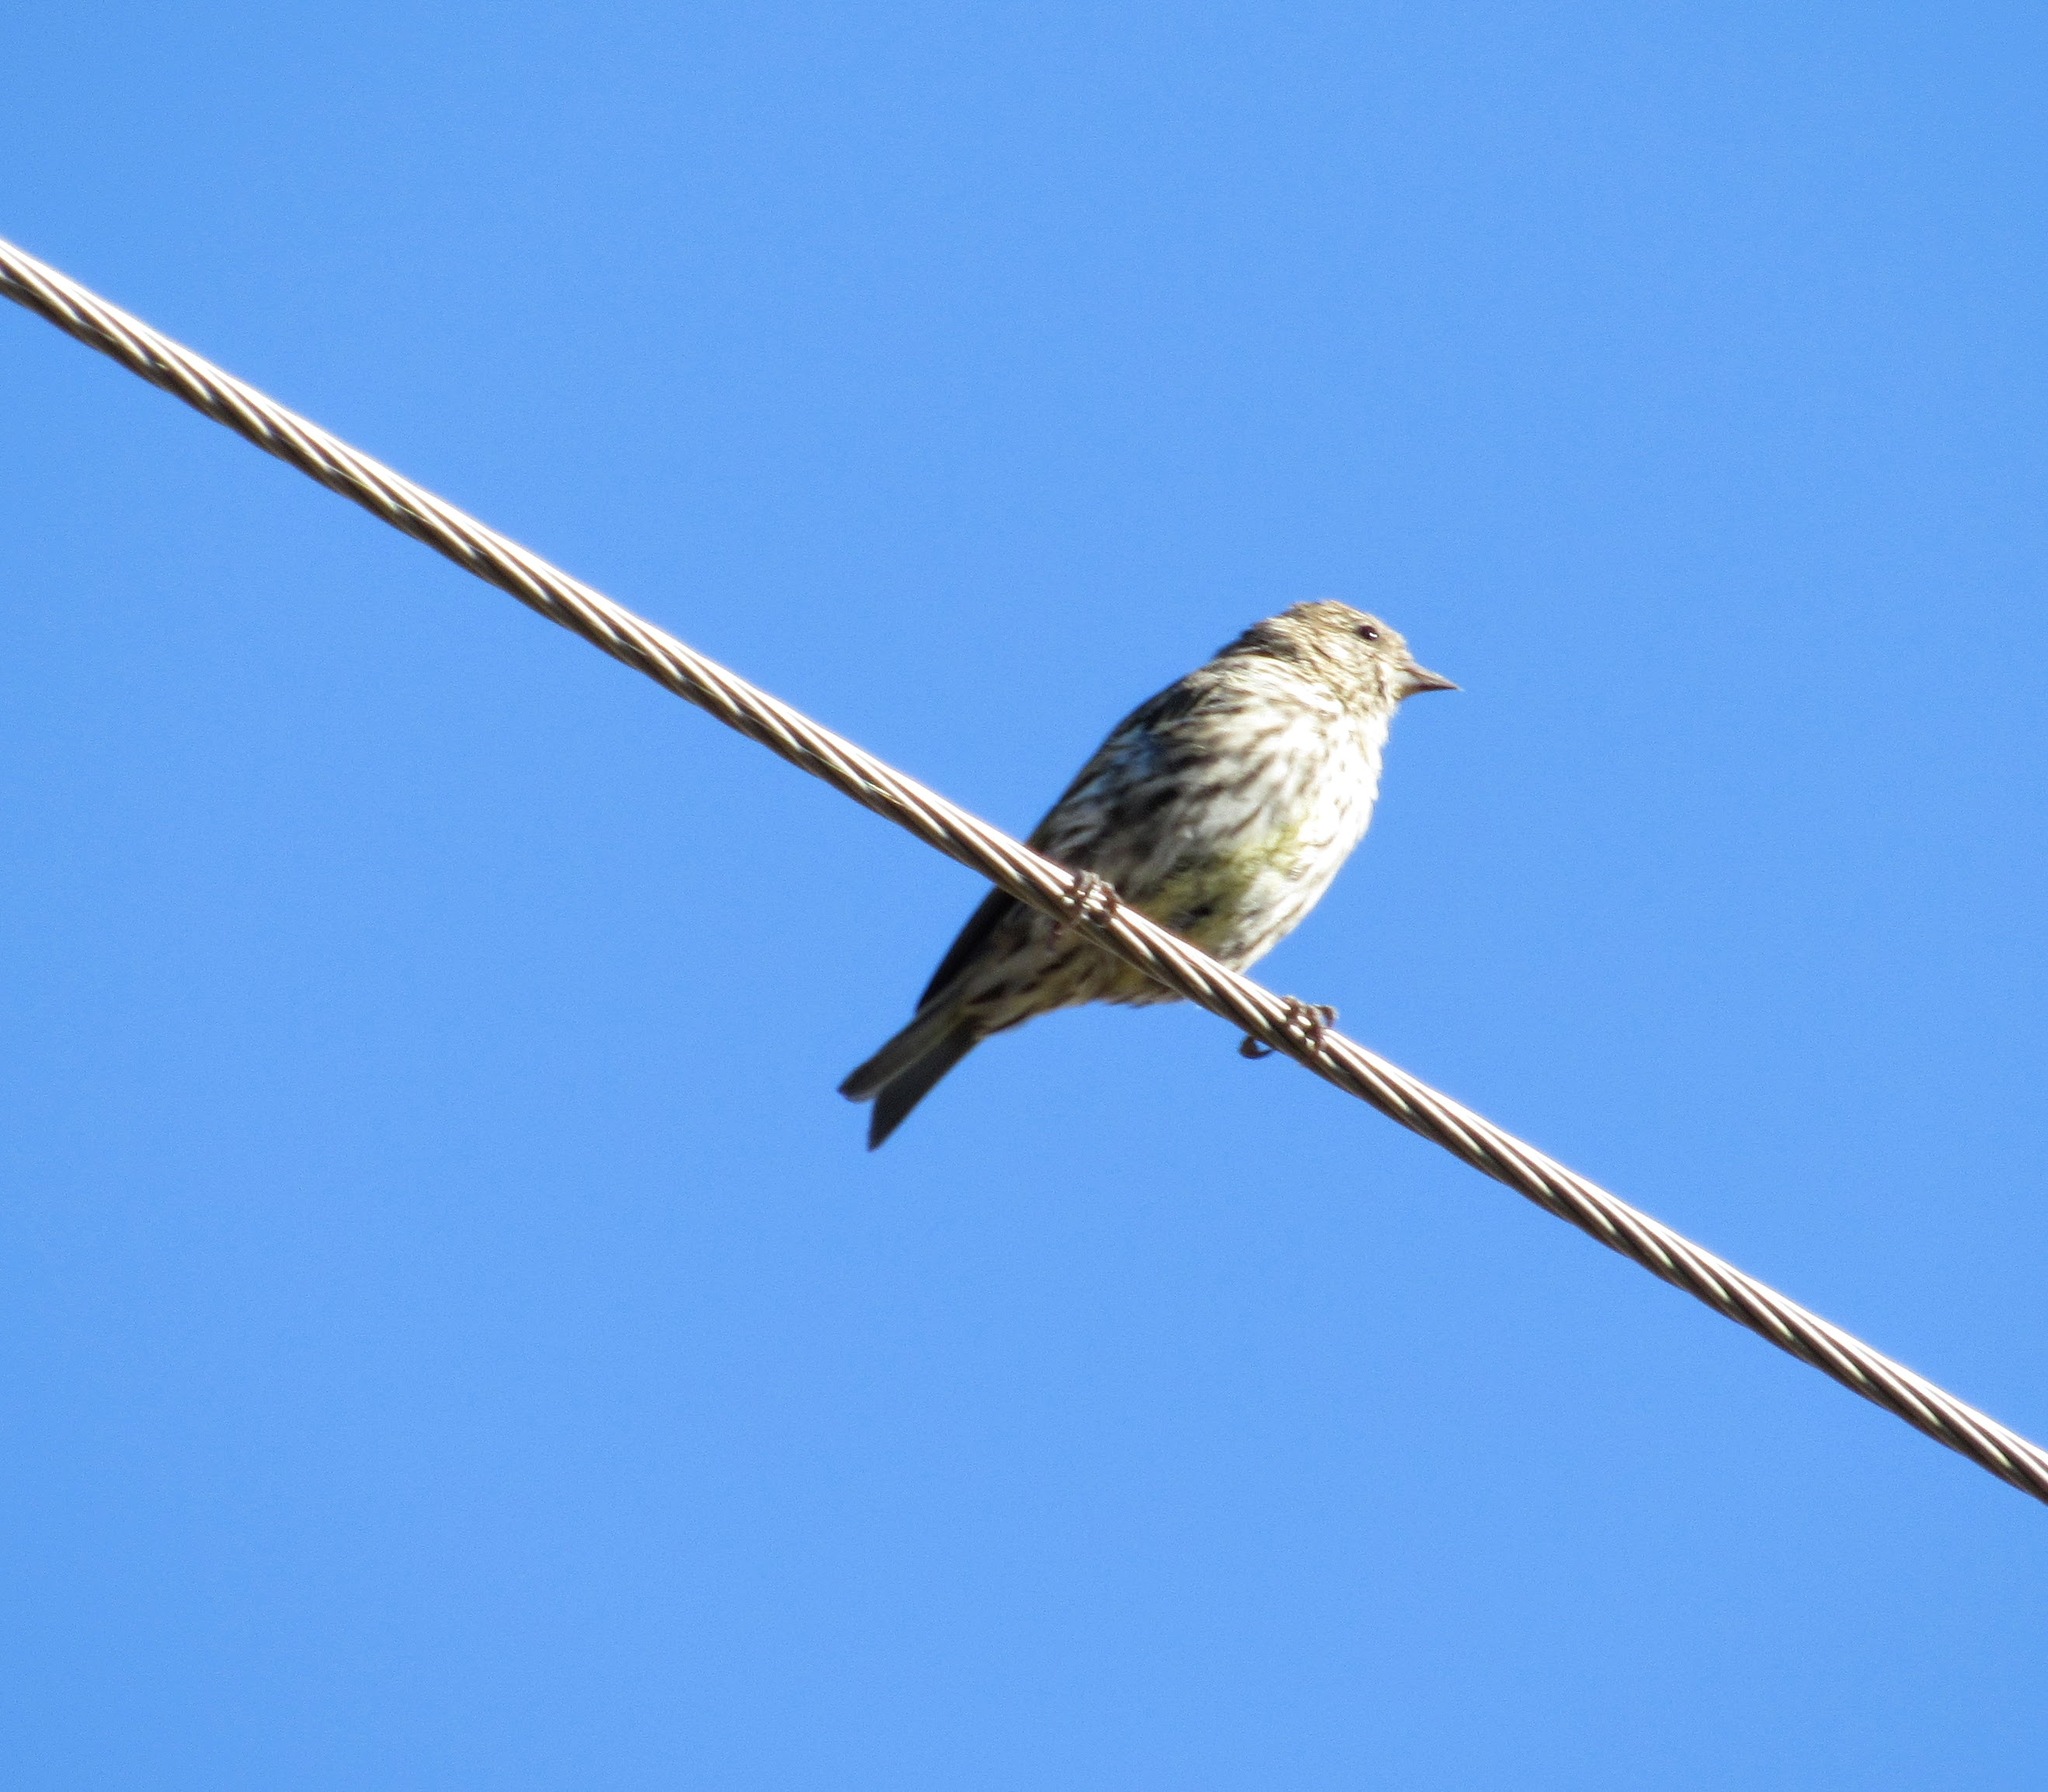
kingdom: Animalia
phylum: Chordata
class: Aves
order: Passeriformes
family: Fringillidae
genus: Spinus
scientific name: Spinus pinus
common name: Pine siskin
